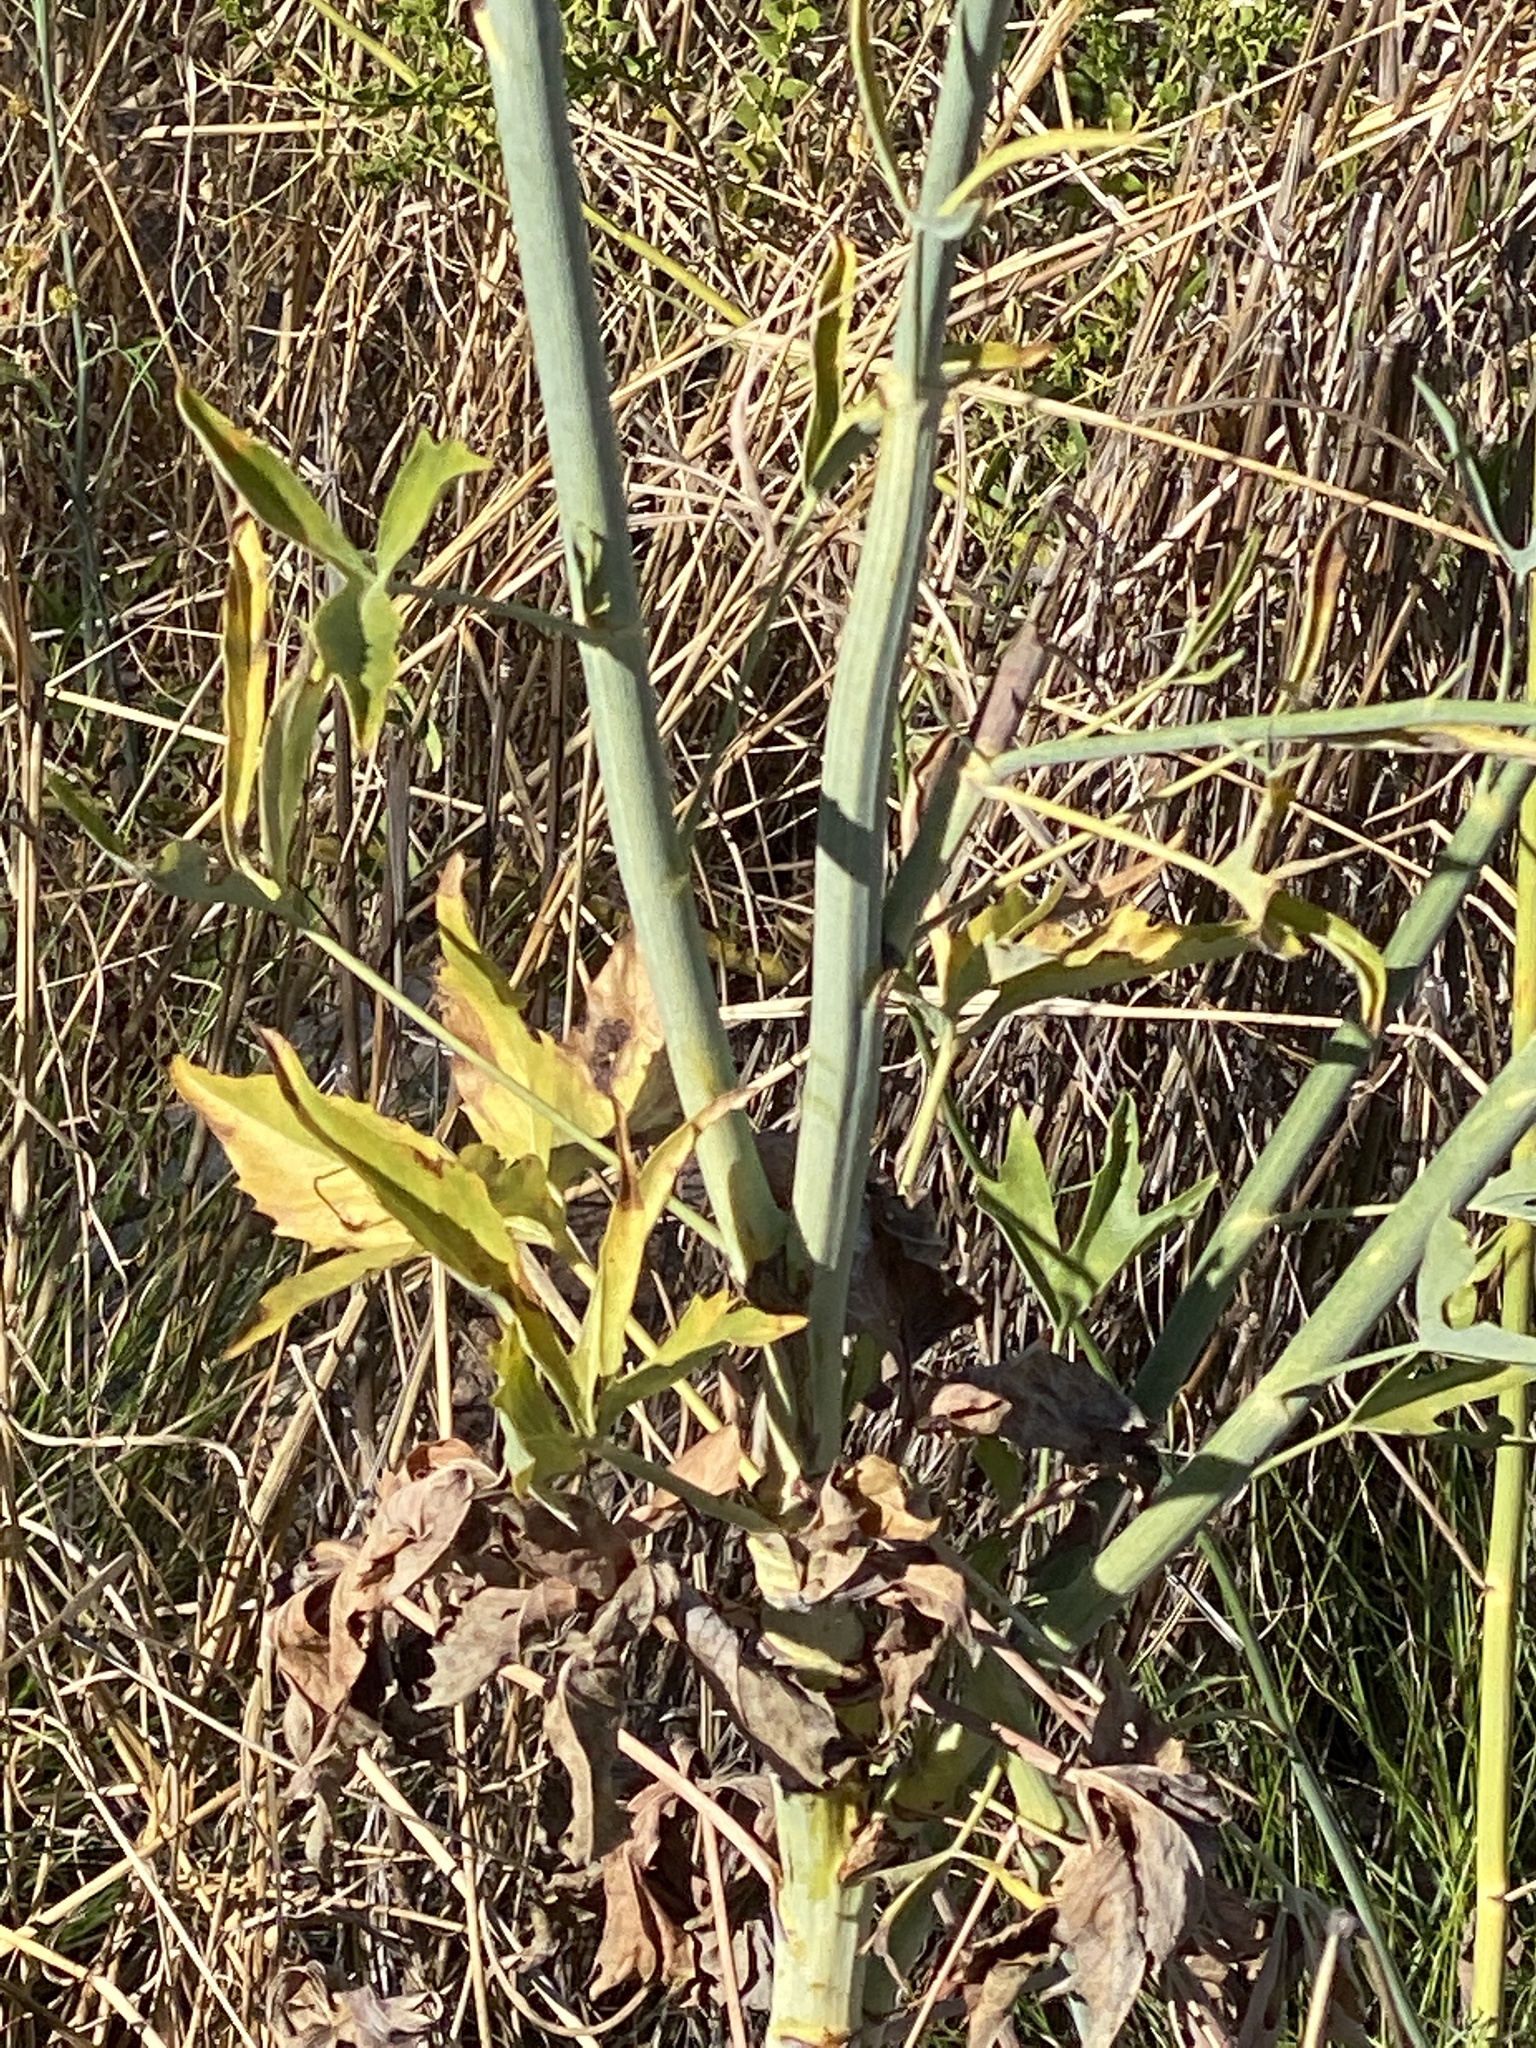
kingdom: Plantae
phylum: Tracheophyta
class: Magnoliopsida
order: Apiales
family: Araliaceae
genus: Trachymene
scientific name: Trachymene didiscoides
